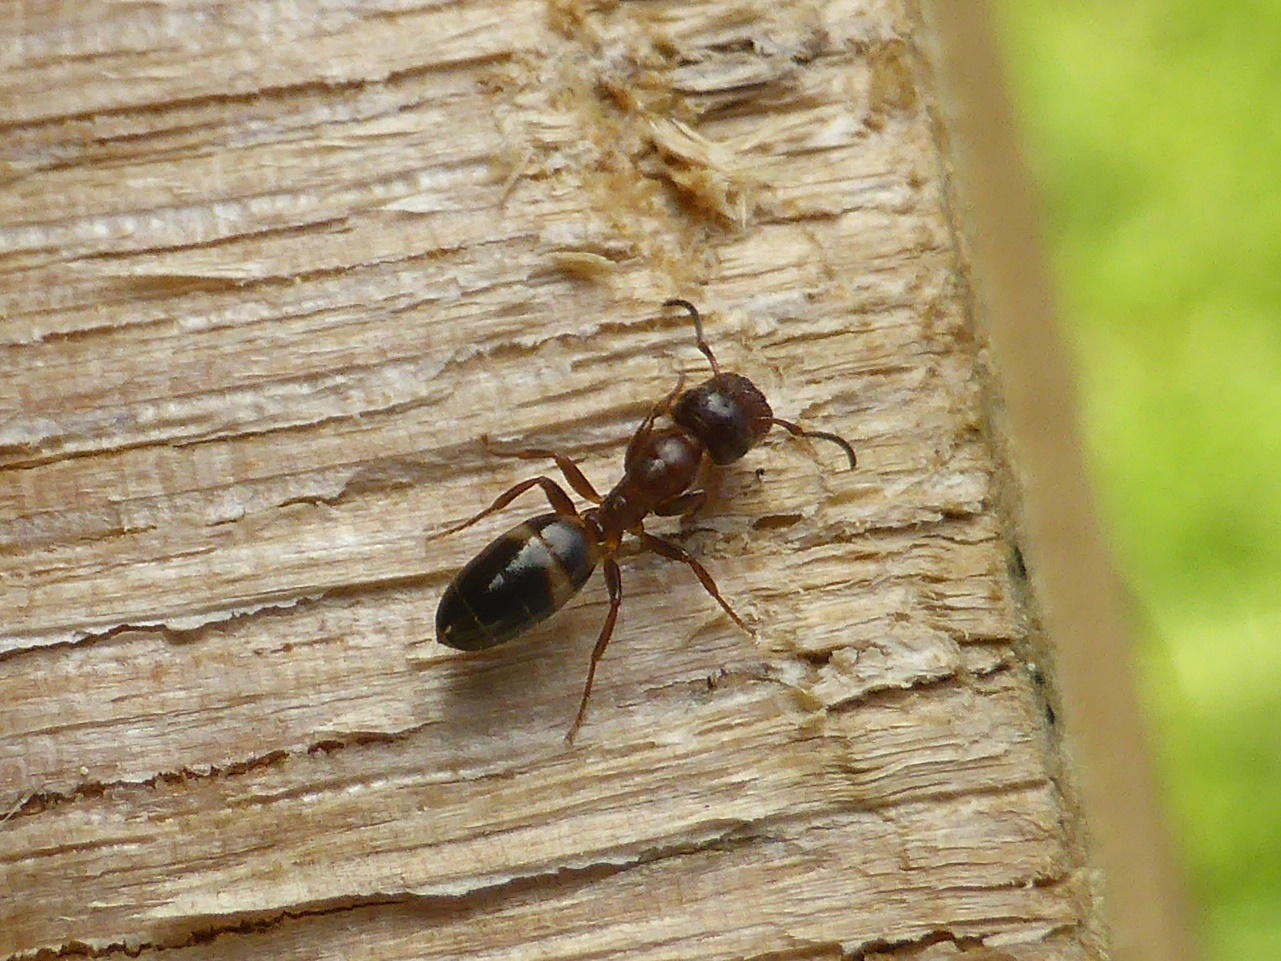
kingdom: Animalia
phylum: Arthropoda
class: Insecta
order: Hymenoptera
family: Formicidae
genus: Camponotus
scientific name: Camponotus truncatus
